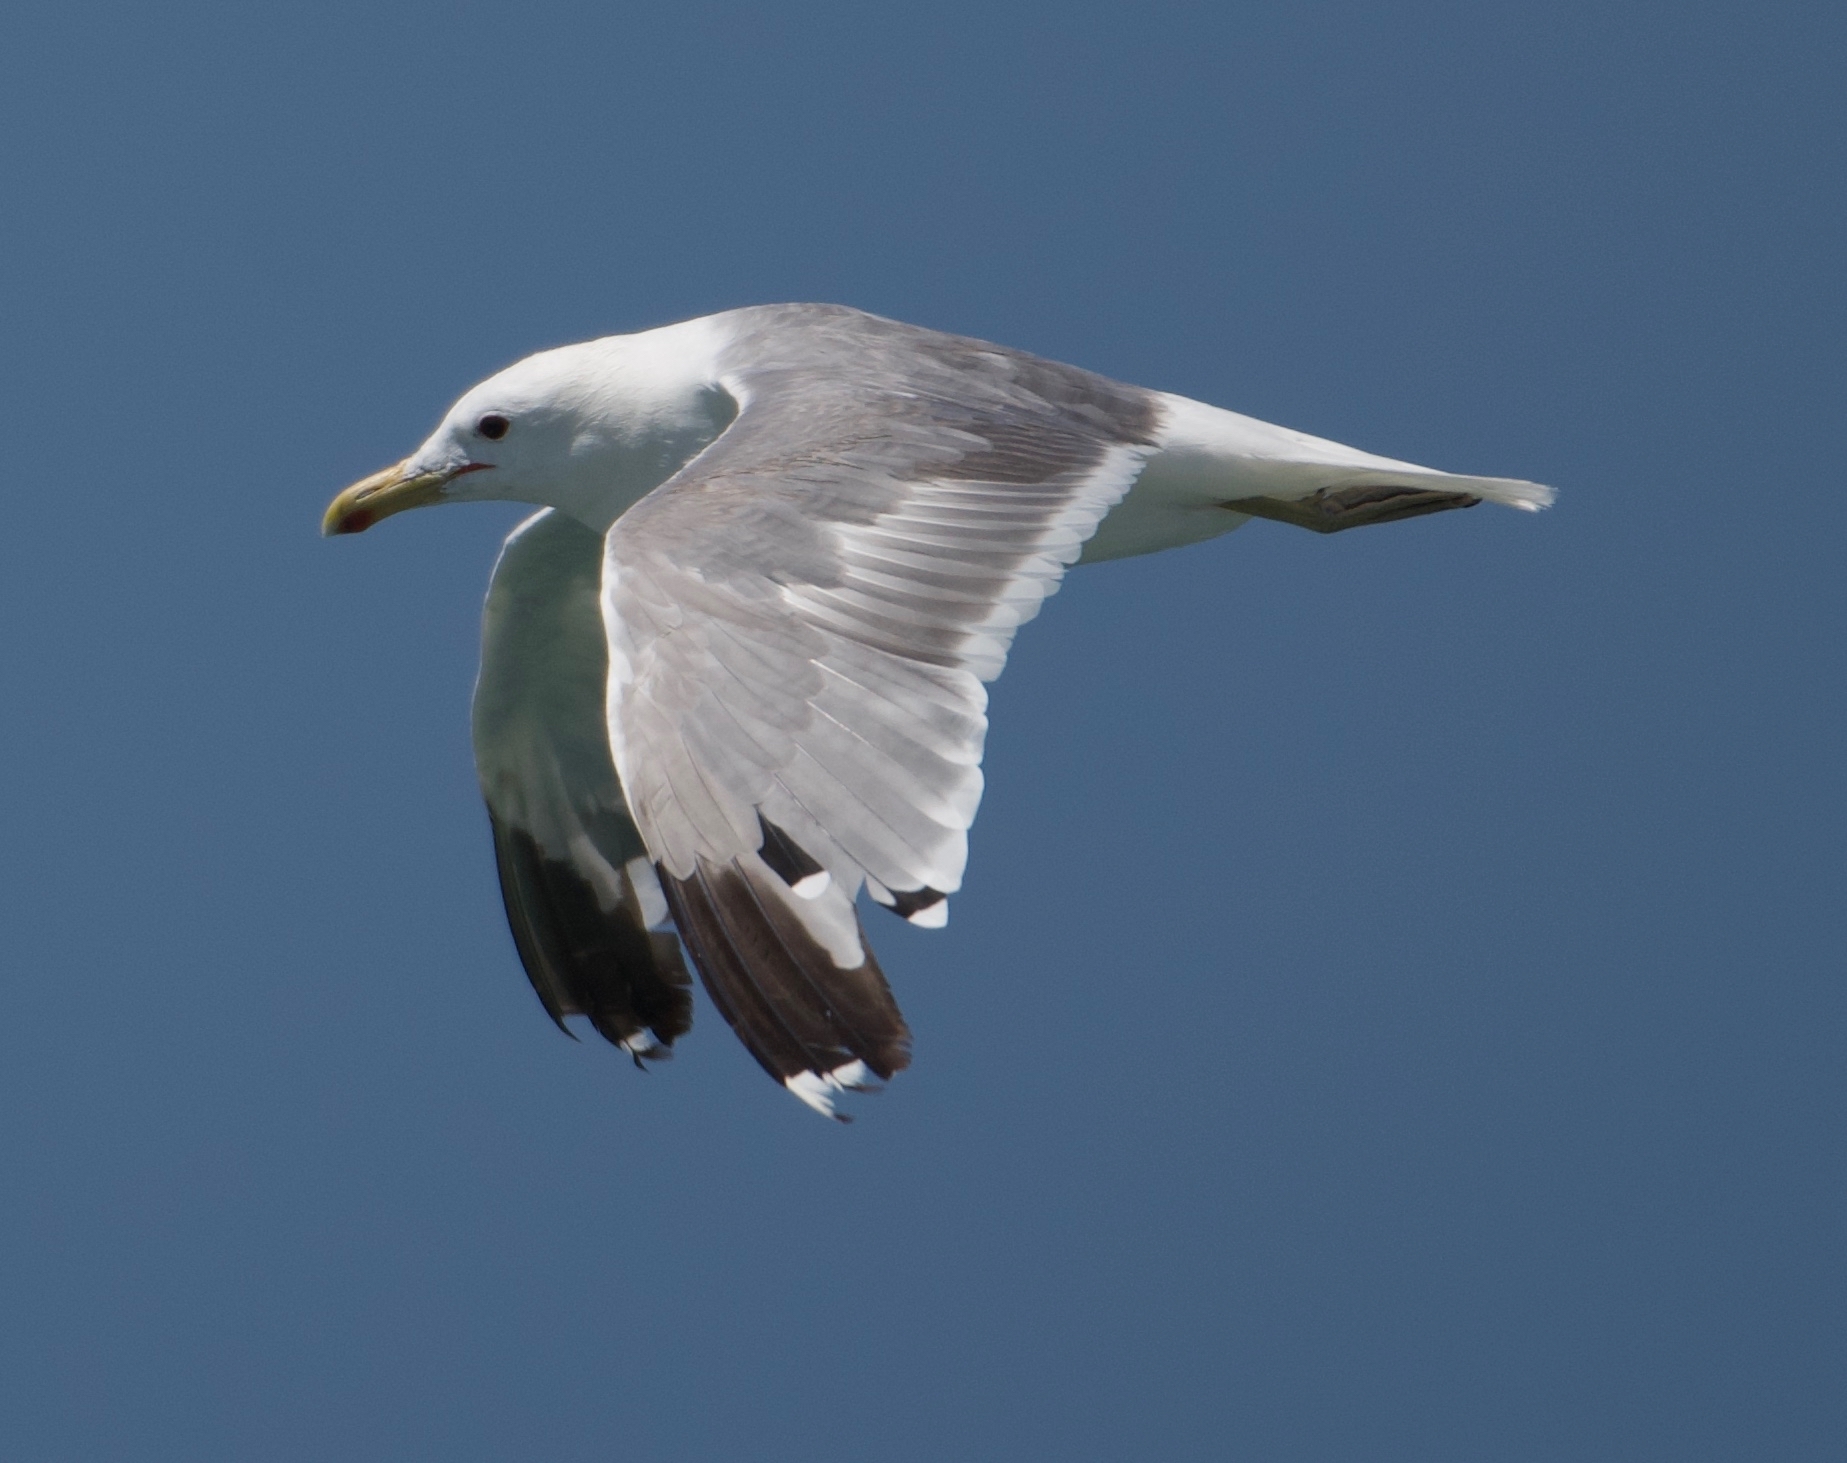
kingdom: Animalia
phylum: Chordata
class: Aves
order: Charadriiformes
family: Laridae
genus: Larus
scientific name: Larus californicus
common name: California gull
